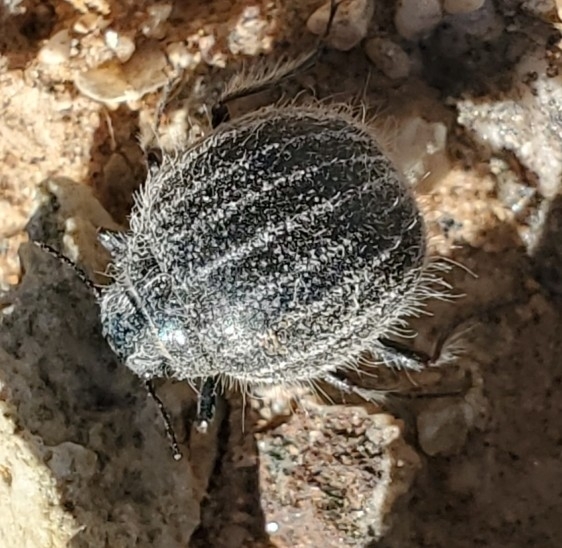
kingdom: Animalia
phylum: Arthropoda
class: Insecta
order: Coleoptera
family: Tenebrionidae
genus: Edrotes
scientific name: Edrotes ventricosus
